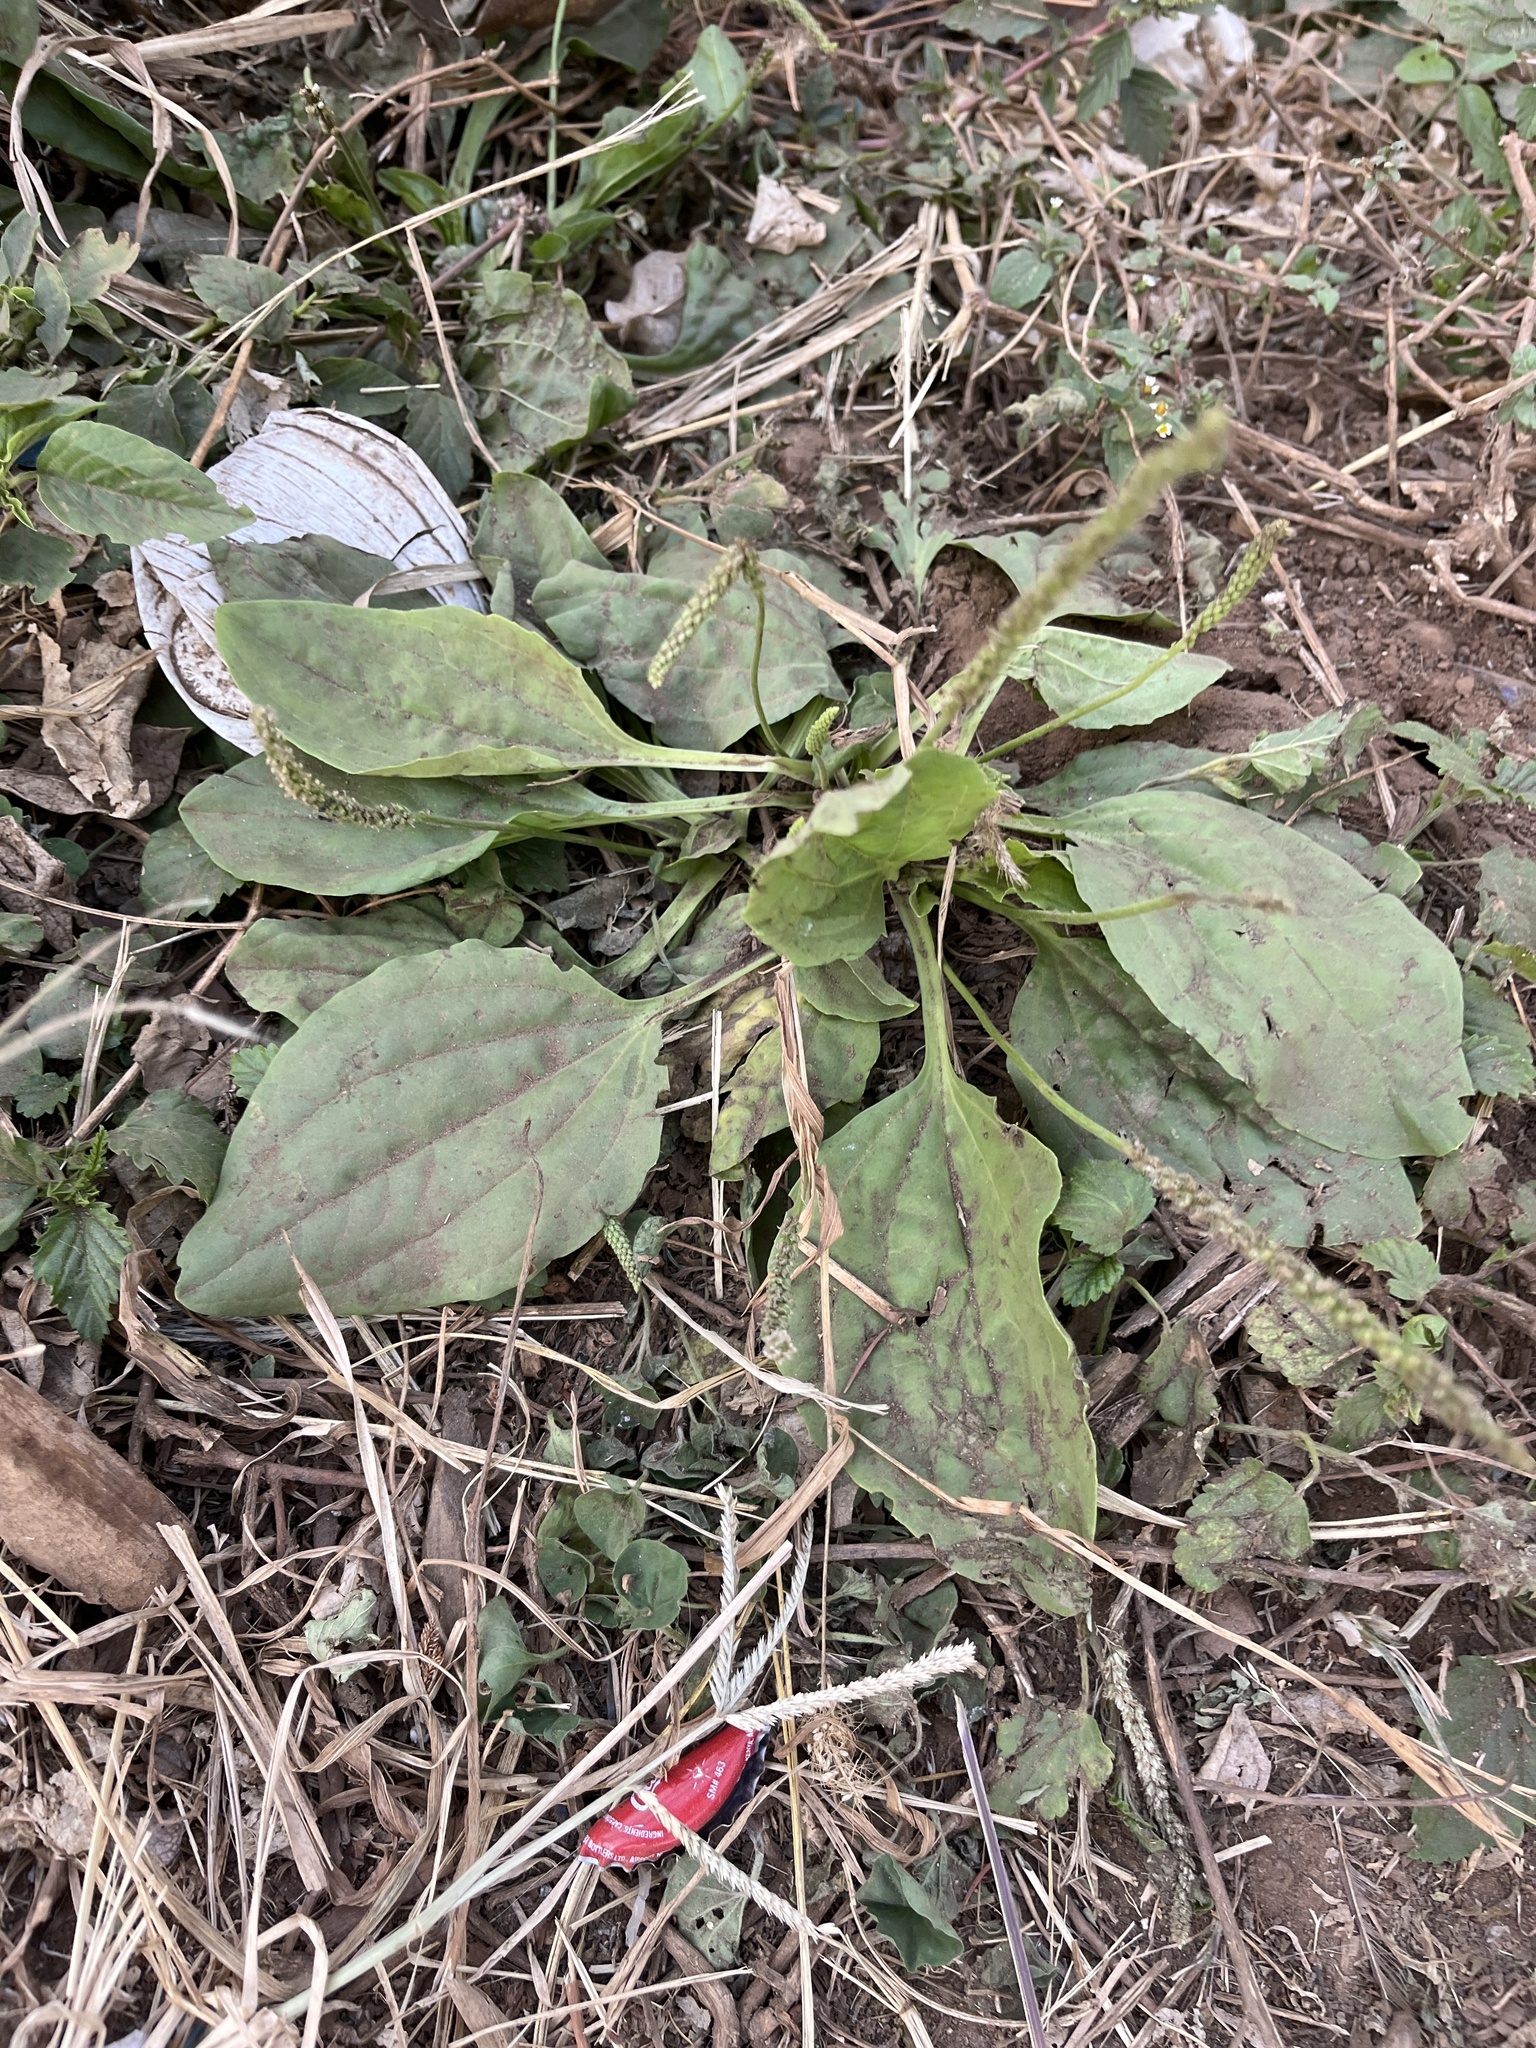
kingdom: Plantae
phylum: Tracheophyta
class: Magnoliopsida
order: Lamiales
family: Plantaginaceae
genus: Plantago
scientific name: Plantago major
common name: Common plantain
